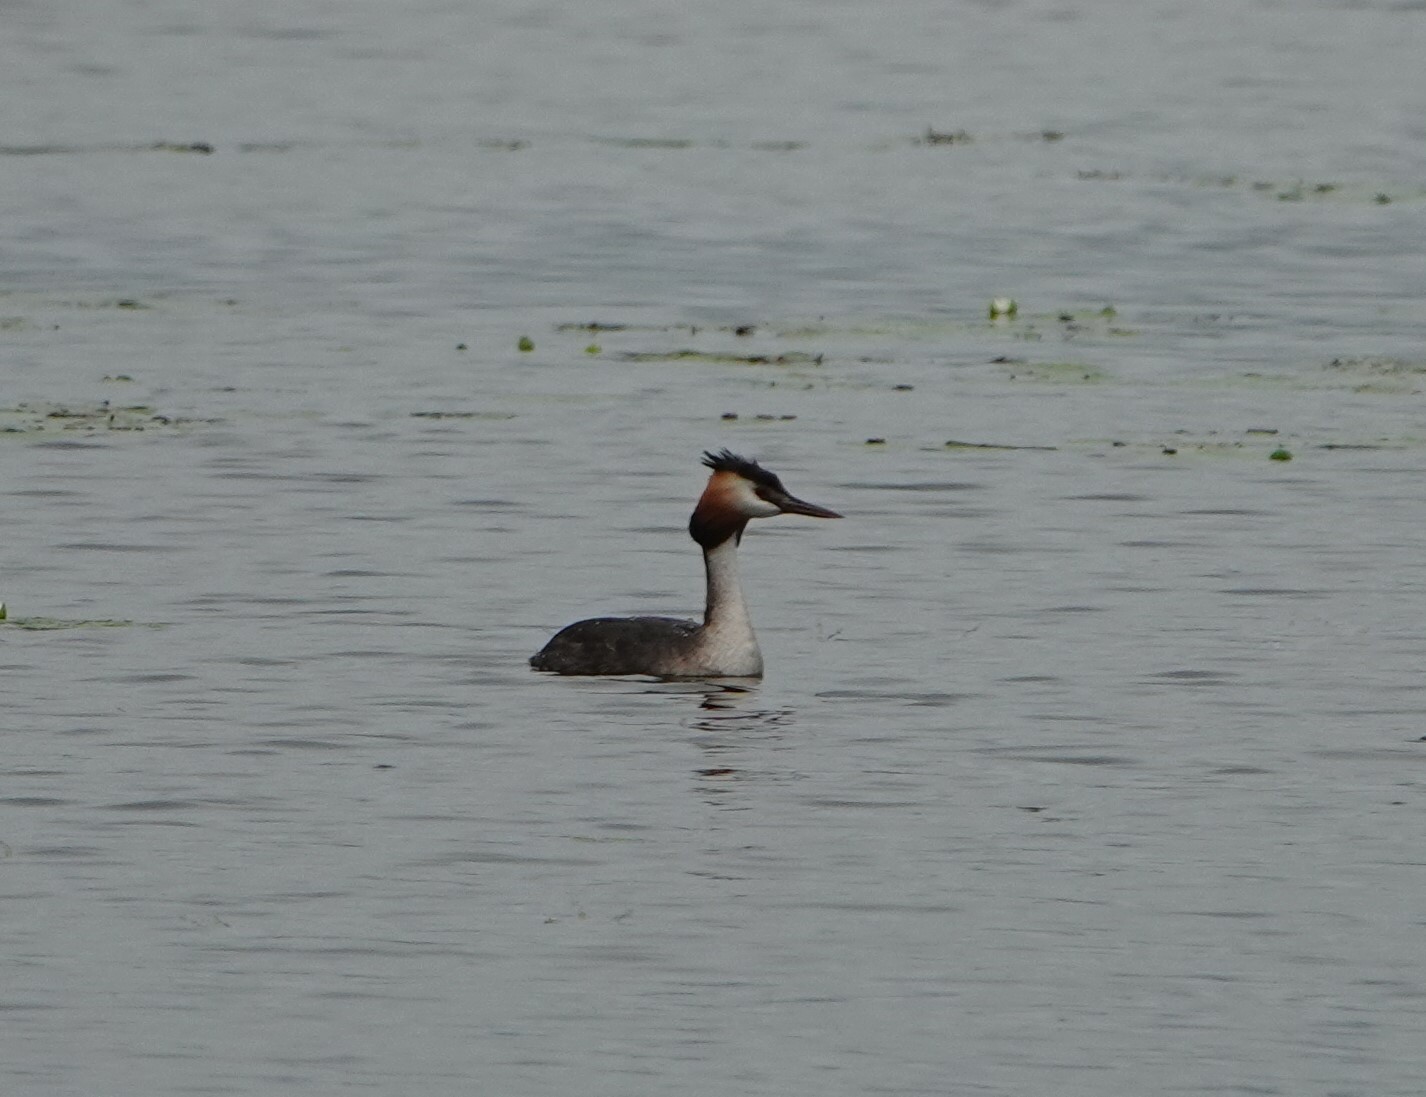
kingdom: Animalia
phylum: Chordata
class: Aves
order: Podicipediformes
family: Podicipedidae
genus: Podiceps
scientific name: Podiceps cristatus
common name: Great crested grebe
